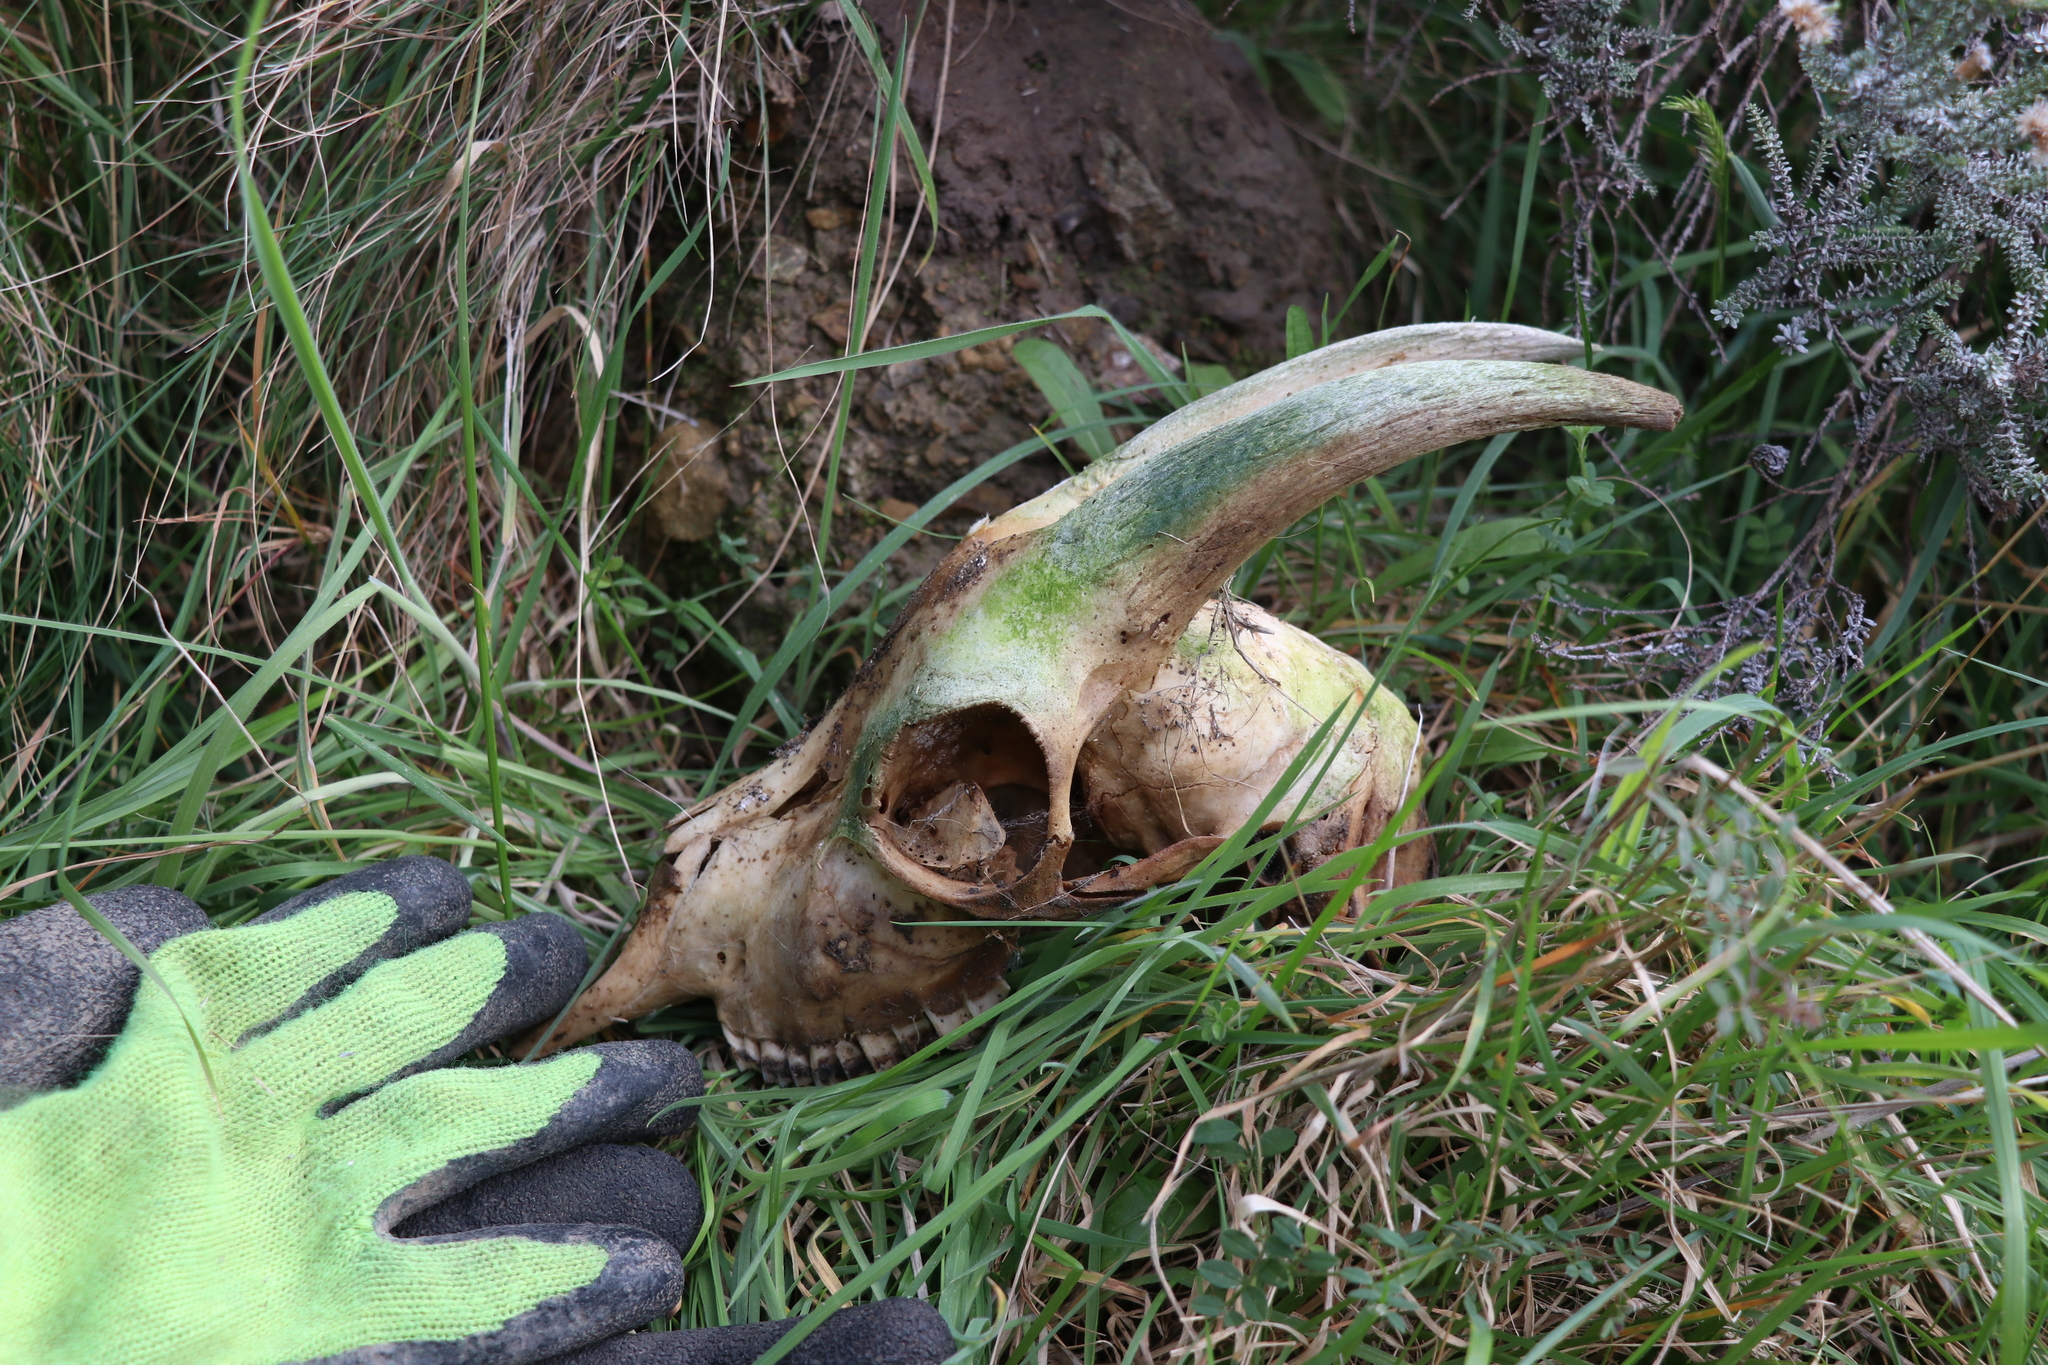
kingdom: Animalia
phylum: Chordata
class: Mammalia
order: Artiodactyla
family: Bovidae
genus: Capra
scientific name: Capra hircus
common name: Domestic goat
